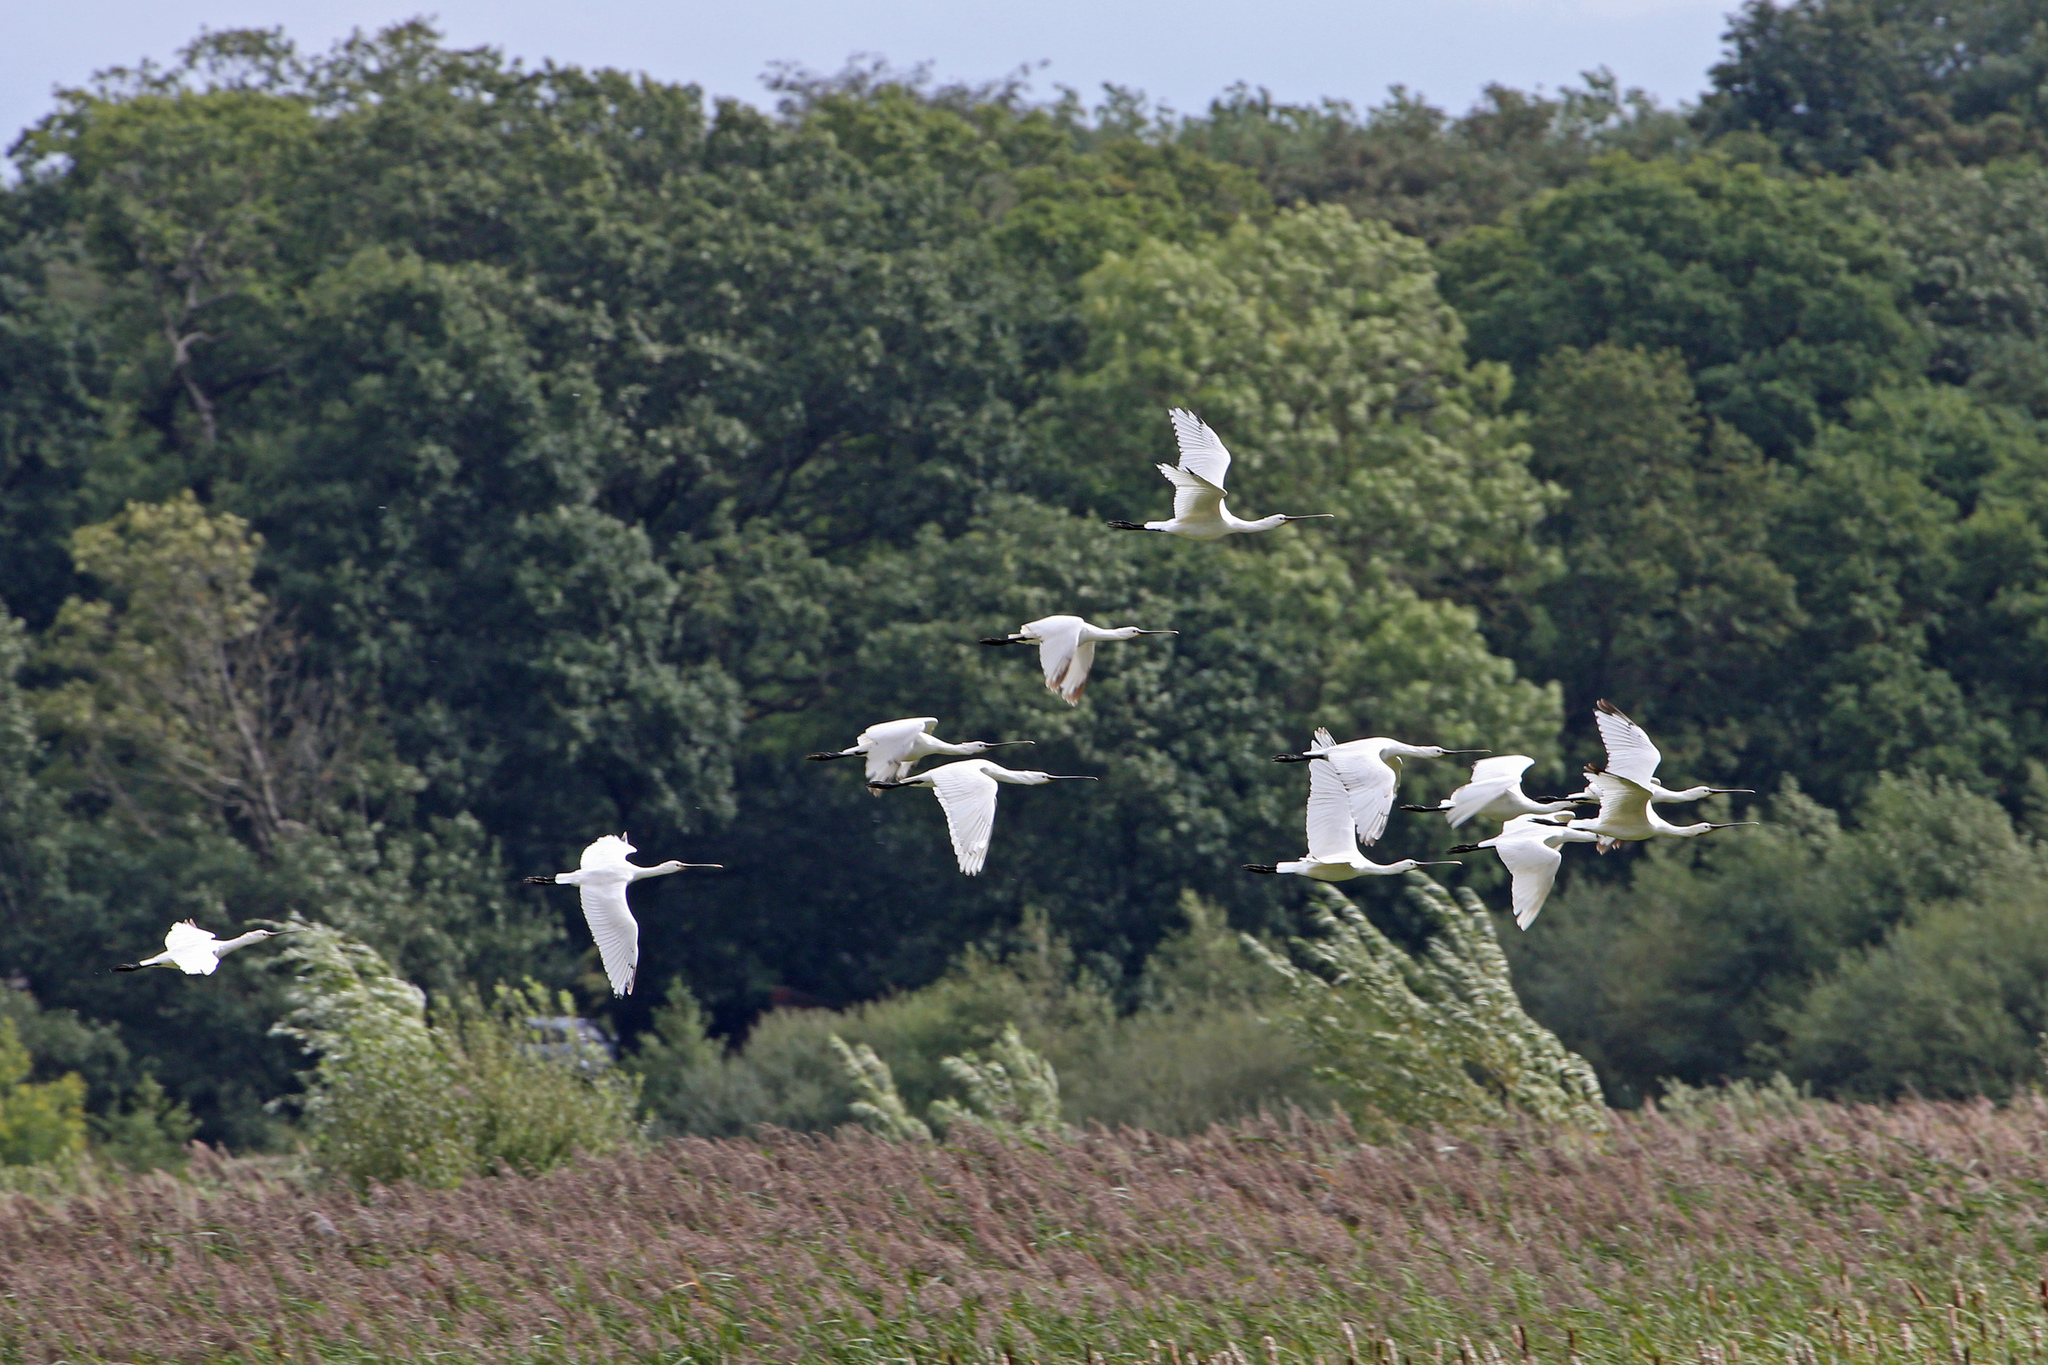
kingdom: Animalia
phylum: Chordata
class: Aves
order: Pelecaniformes
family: Threskiornithidae
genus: Platalea
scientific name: Platalea leucorodia
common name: Eurasian spoonbill
